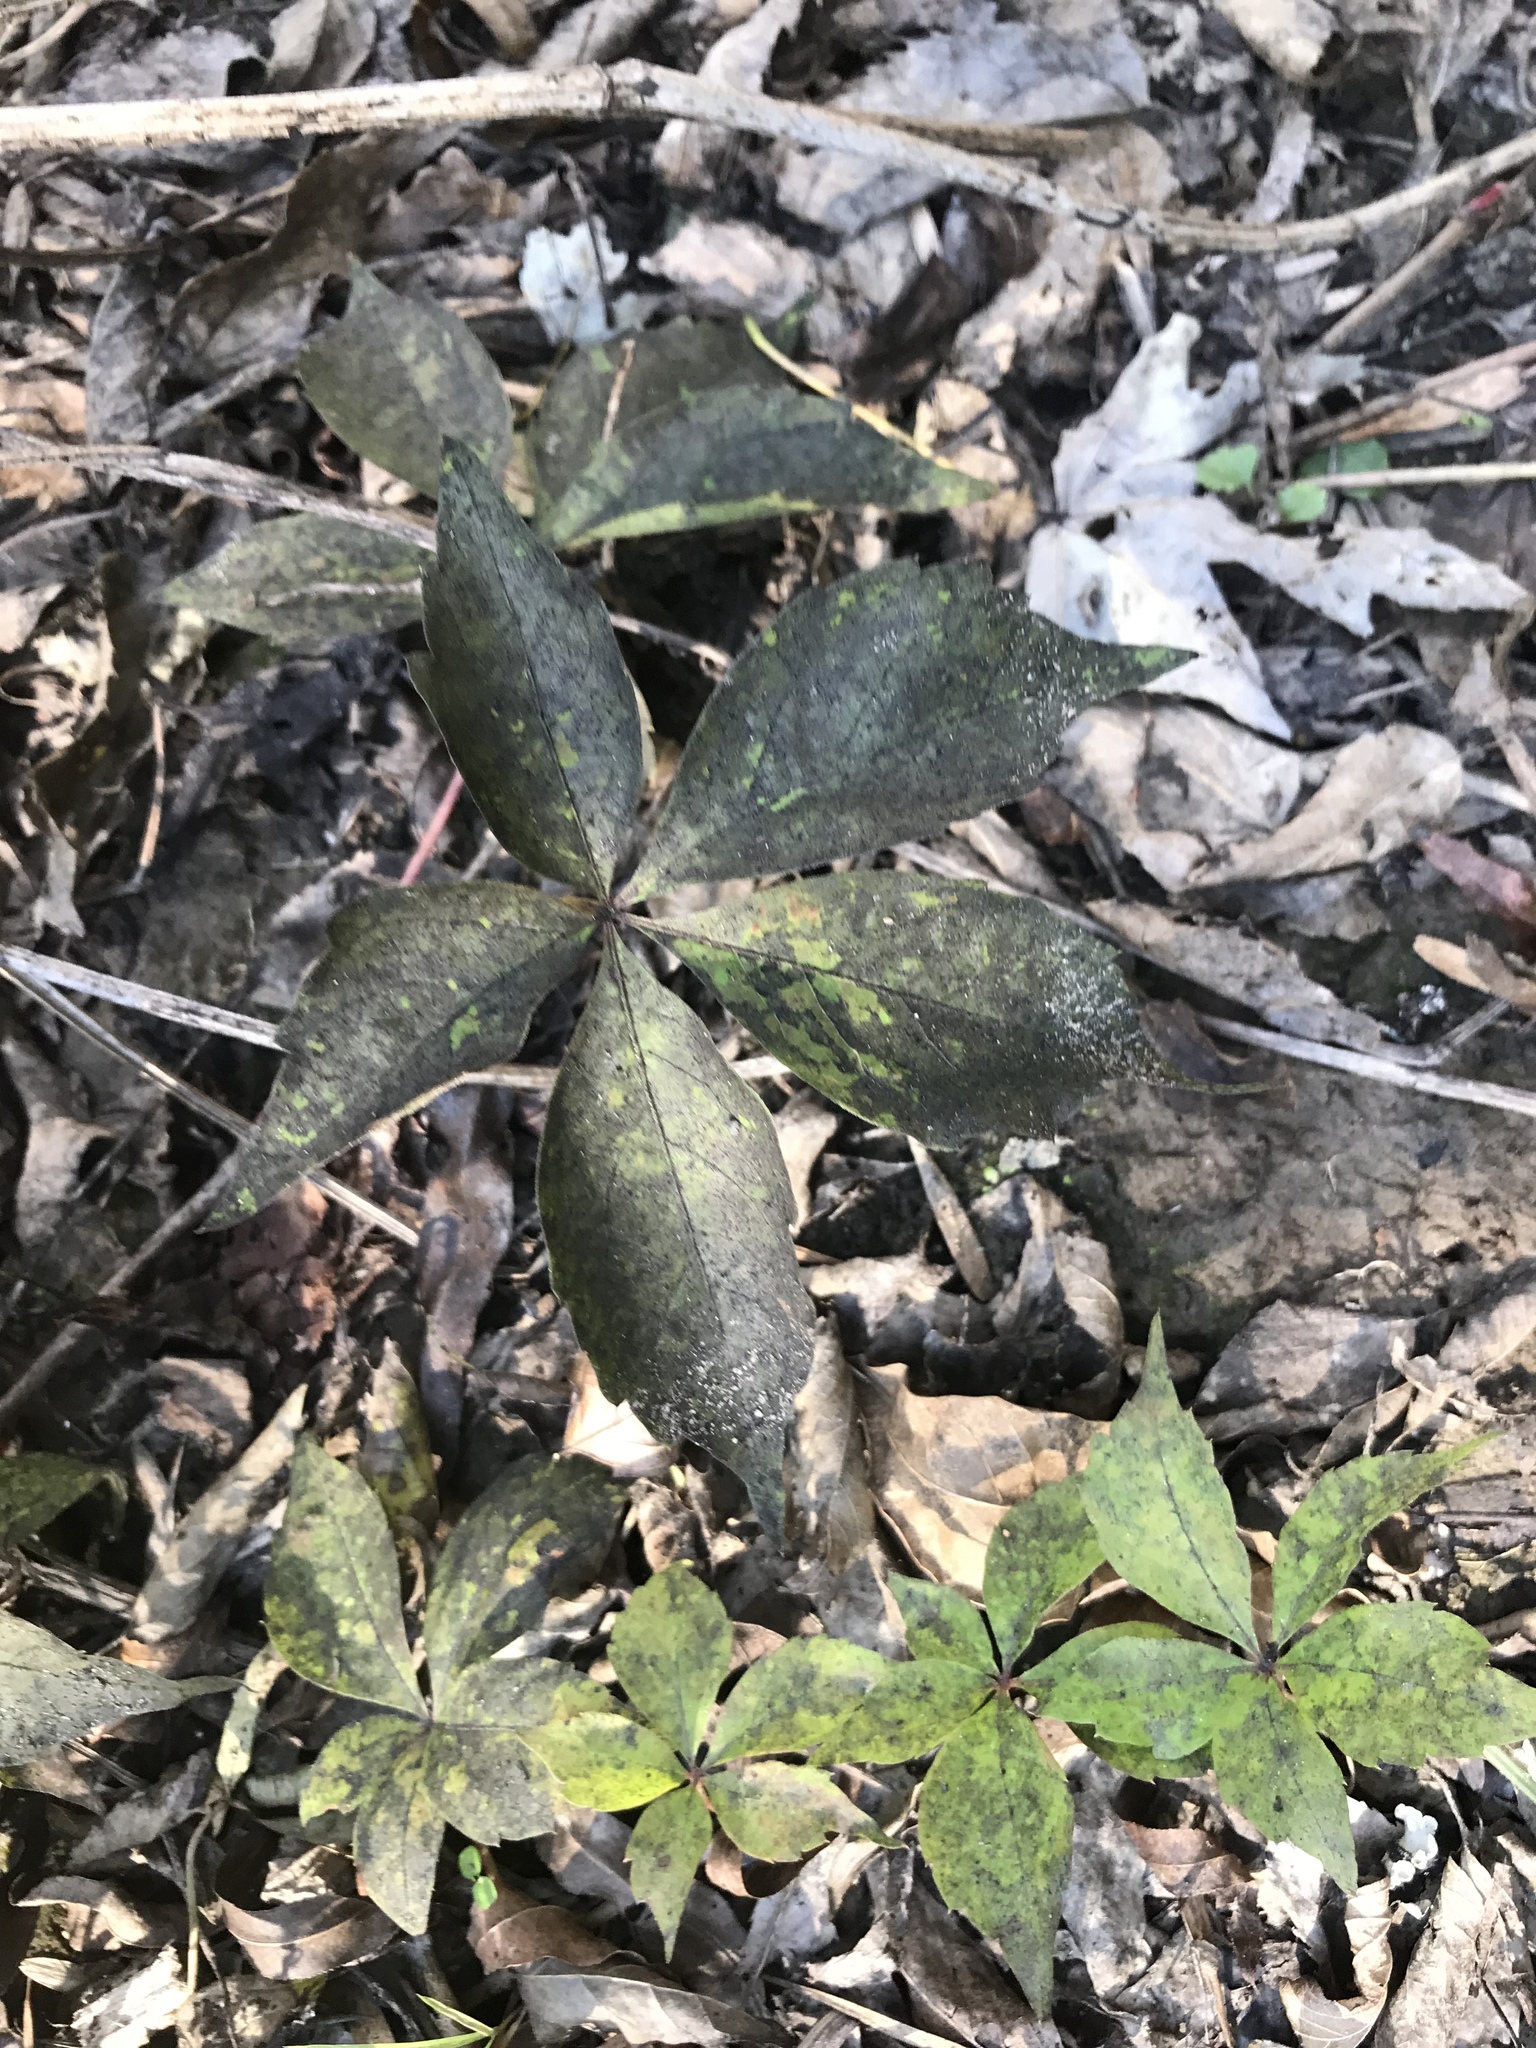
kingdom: Plantae
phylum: Tracheophyta
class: Magnoliopsida
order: Vitales
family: Vitaceae
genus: Parthenocissus
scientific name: Parthenocissus quinquefolia
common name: Virginia-creeper
